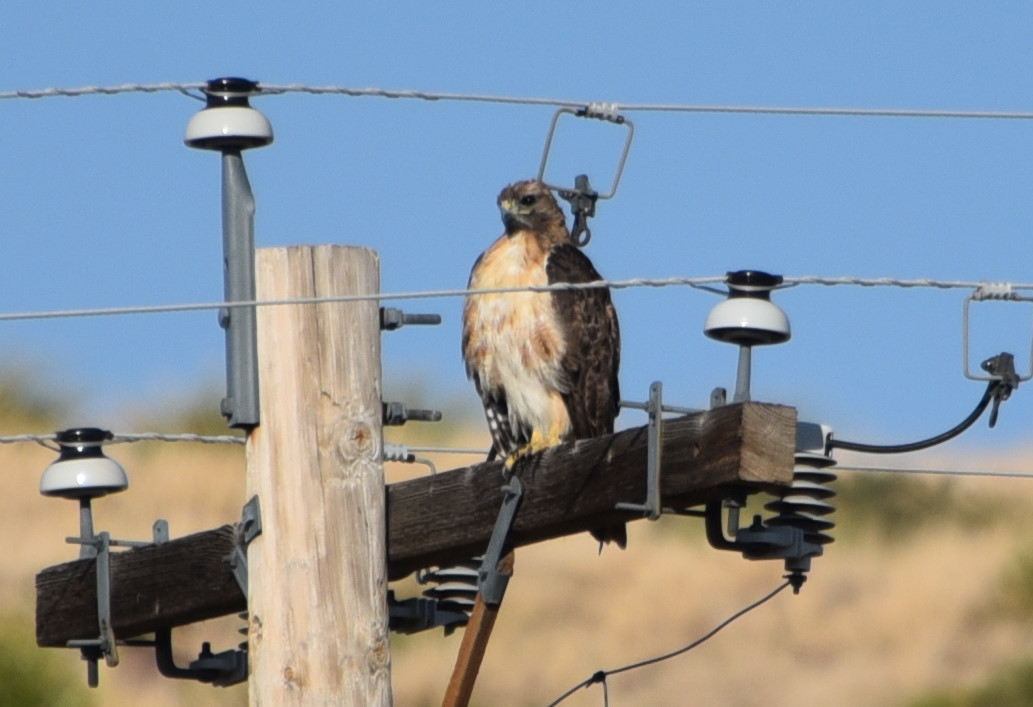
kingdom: Animalia
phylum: Chordata
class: Aves
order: Accipitriformes
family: Accipitridae
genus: Buteo
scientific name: Buteo jamaicensis
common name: Red-tailed hawk
